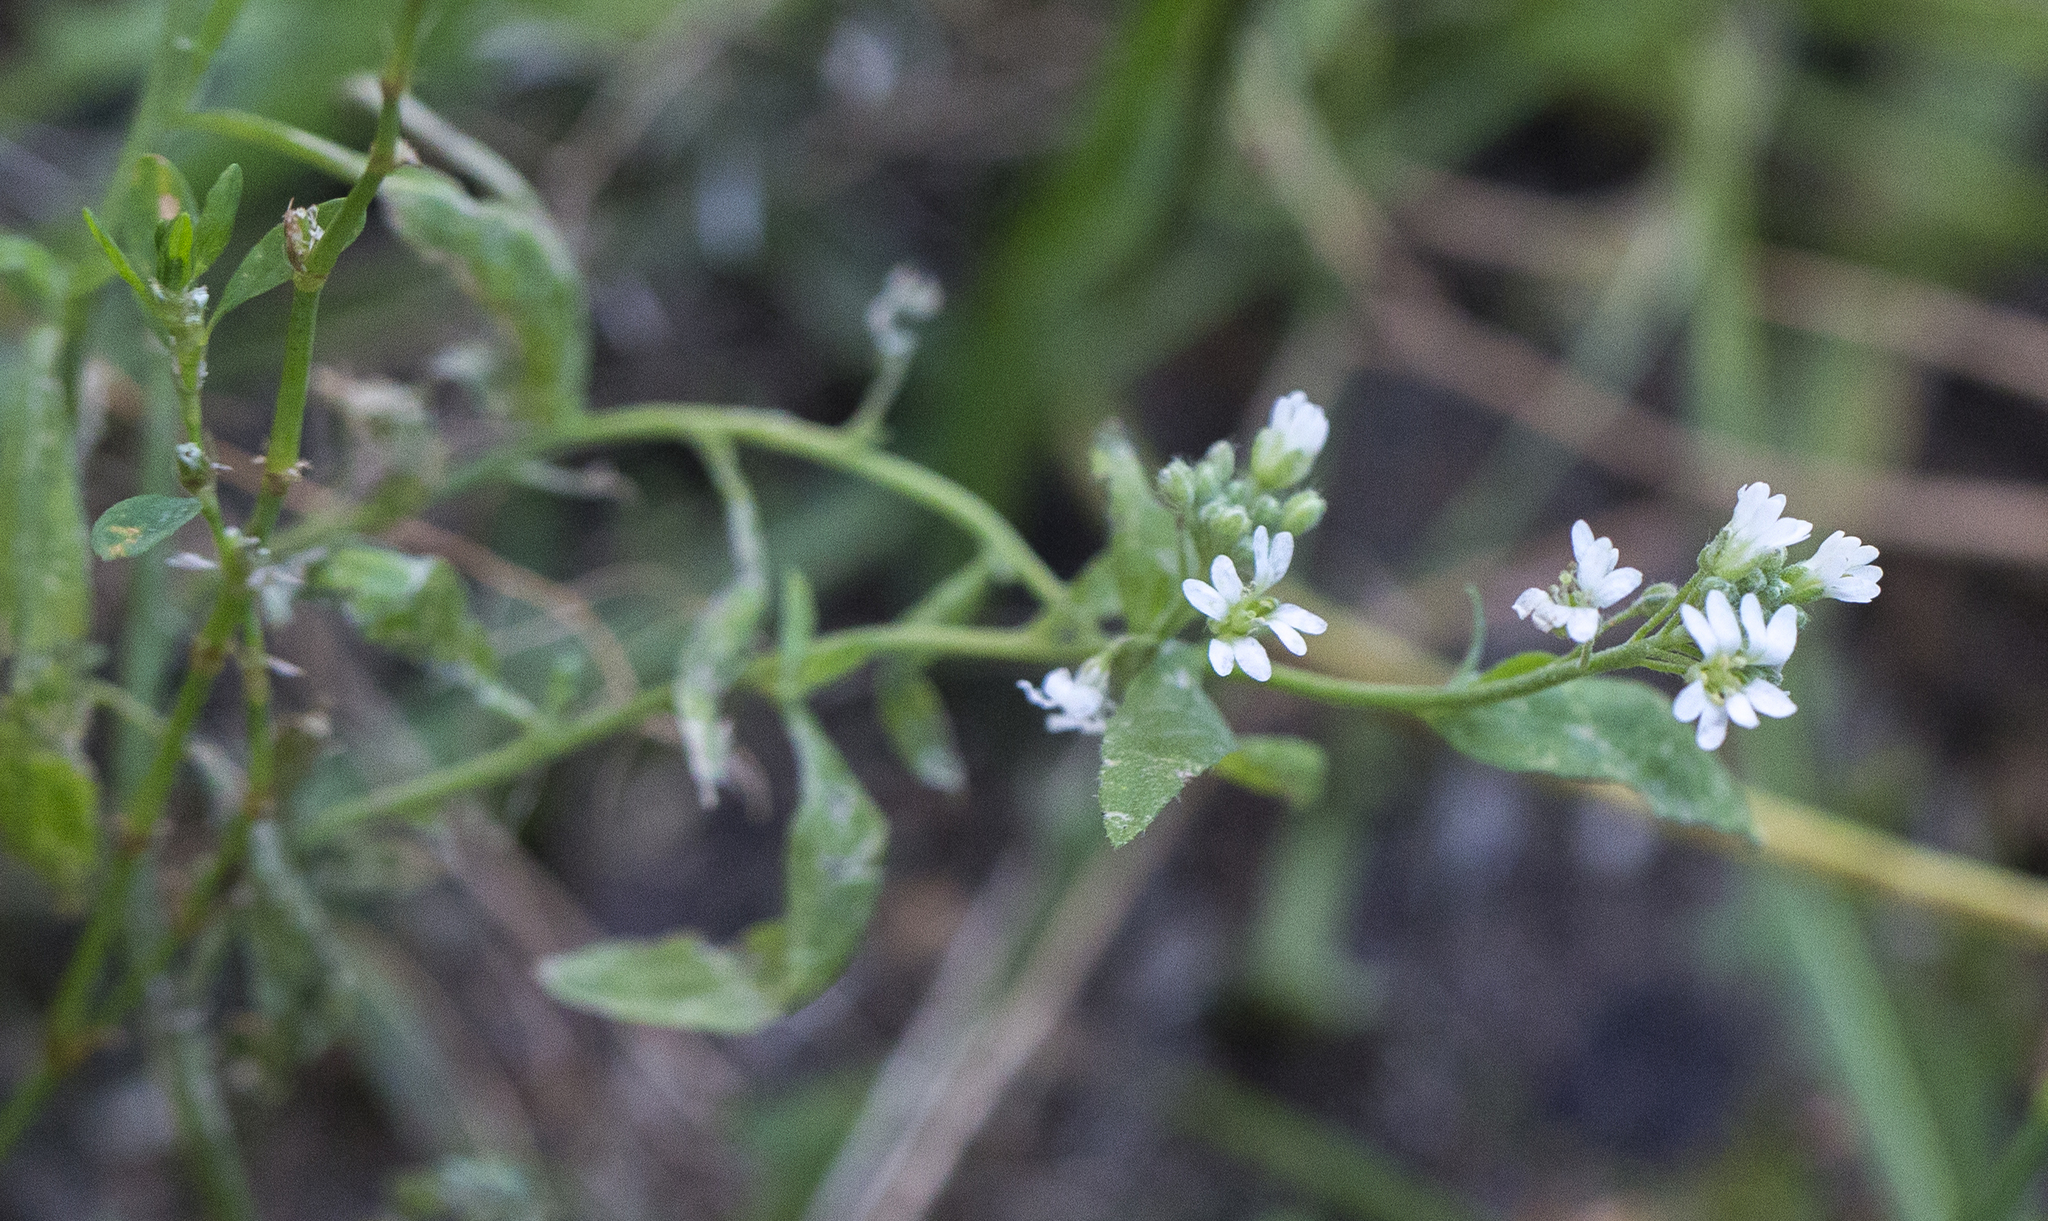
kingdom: Plantae
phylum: Tracheophyta
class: Magnoliopsida
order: Brassicales
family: Brassicaceae
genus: Berteroa
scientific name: Berteroa incana
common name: Hoary alison
